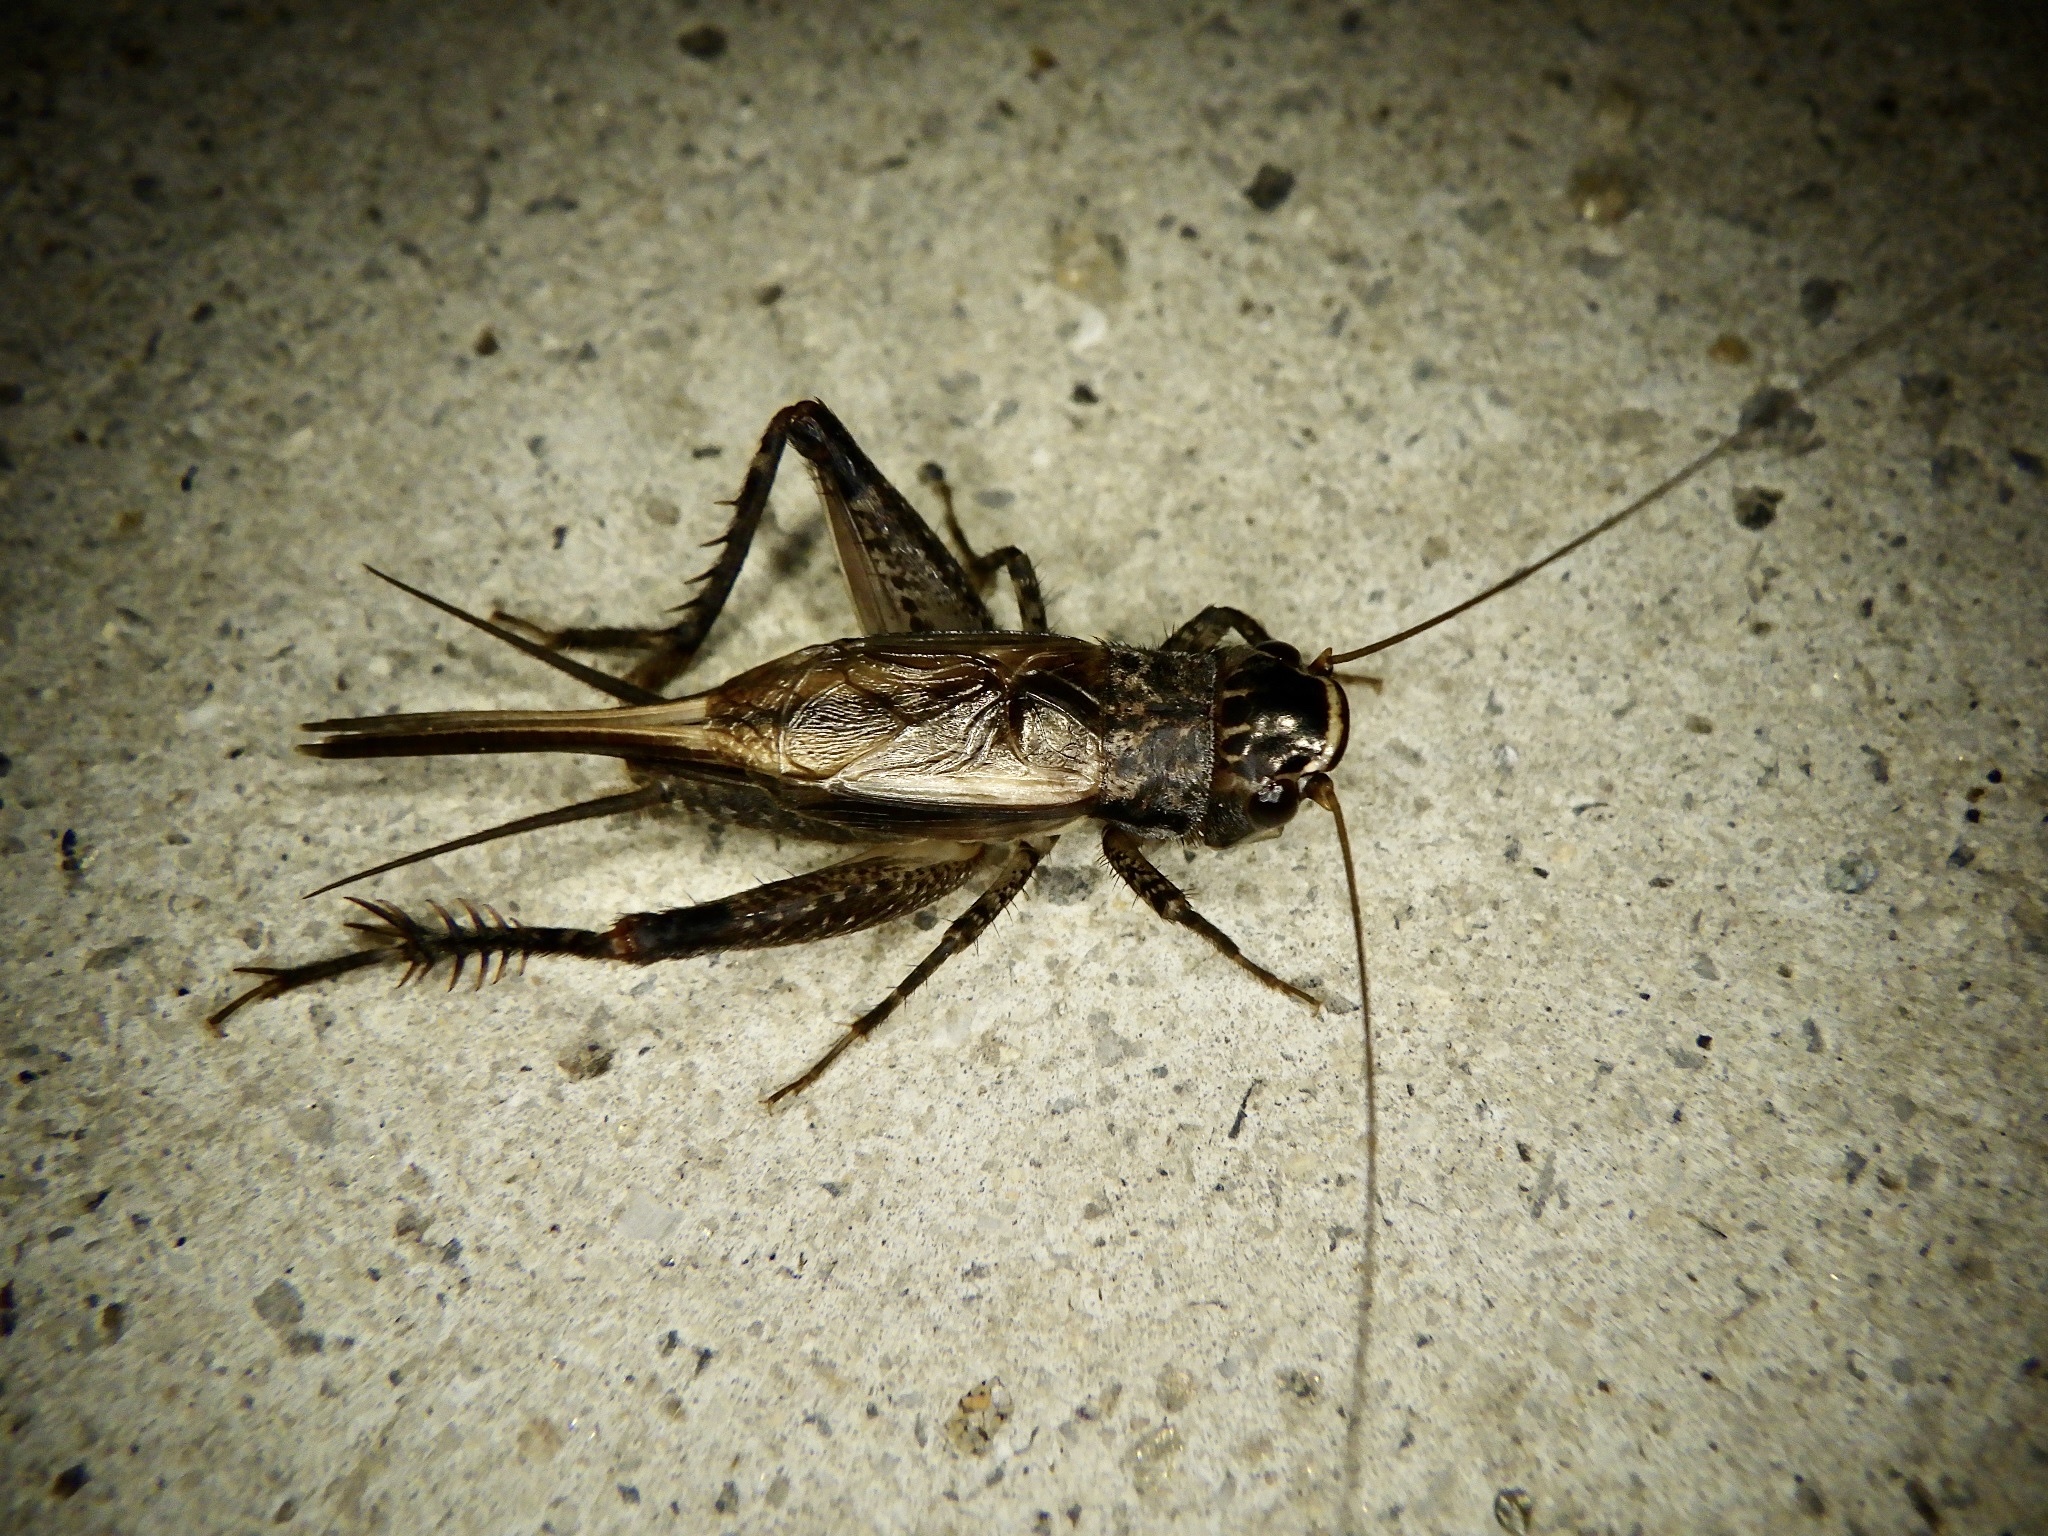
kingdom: Animalia
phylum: Arthropoda
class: Insecta
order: Orthoptera
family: Gryllidae
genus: Loxoblemmus
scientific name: Loxoblemmus arietulus
